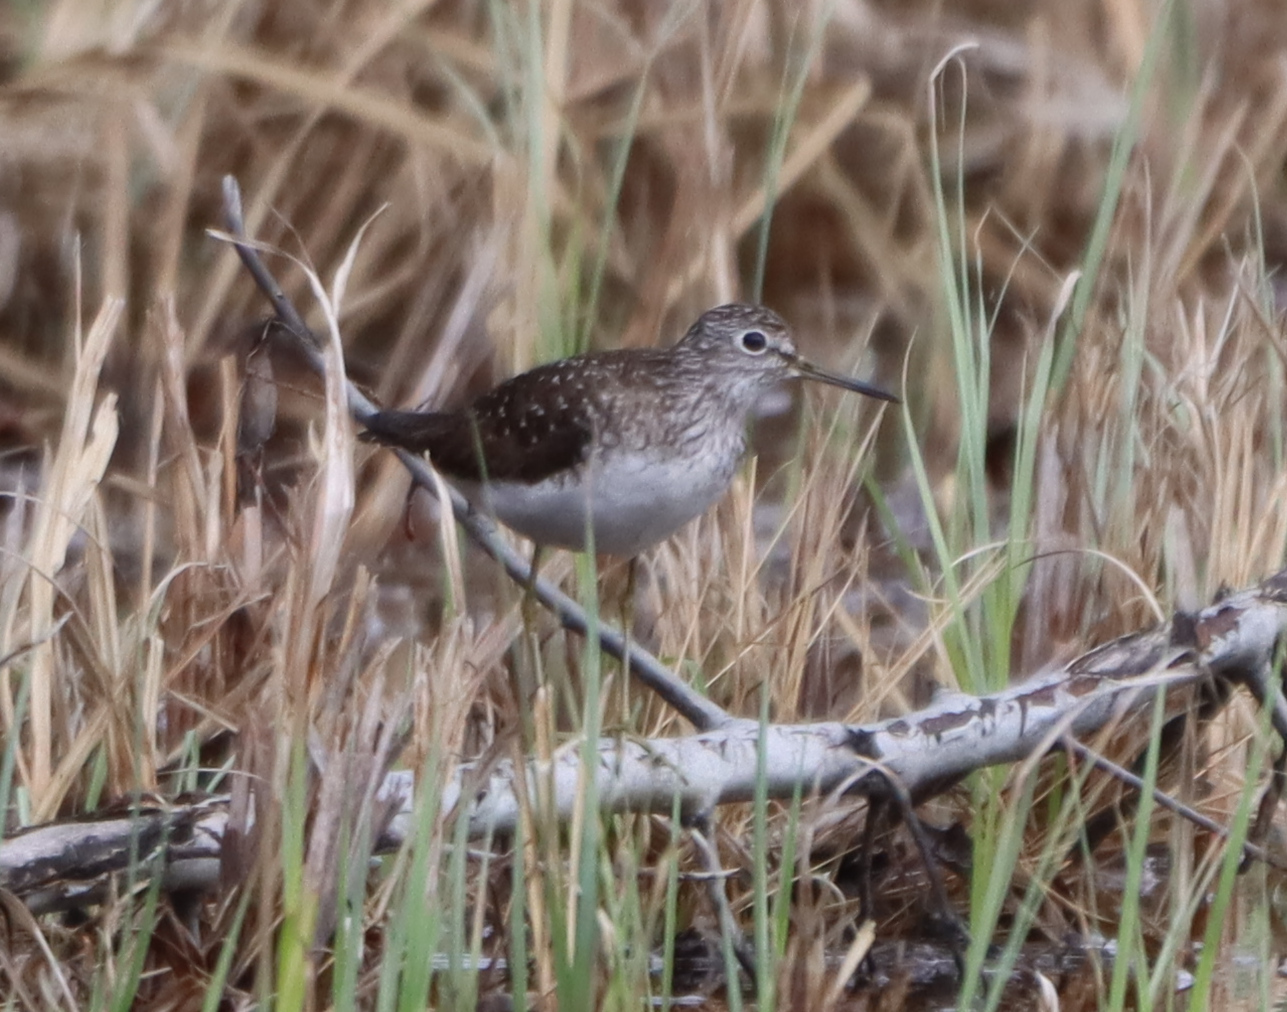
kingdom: Animalia
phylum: Chordata
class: Aves
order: Charadriiformes
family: Scolopacidae
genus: Tringa
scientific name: Tringa solitaria
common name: Solitary sandpiper
